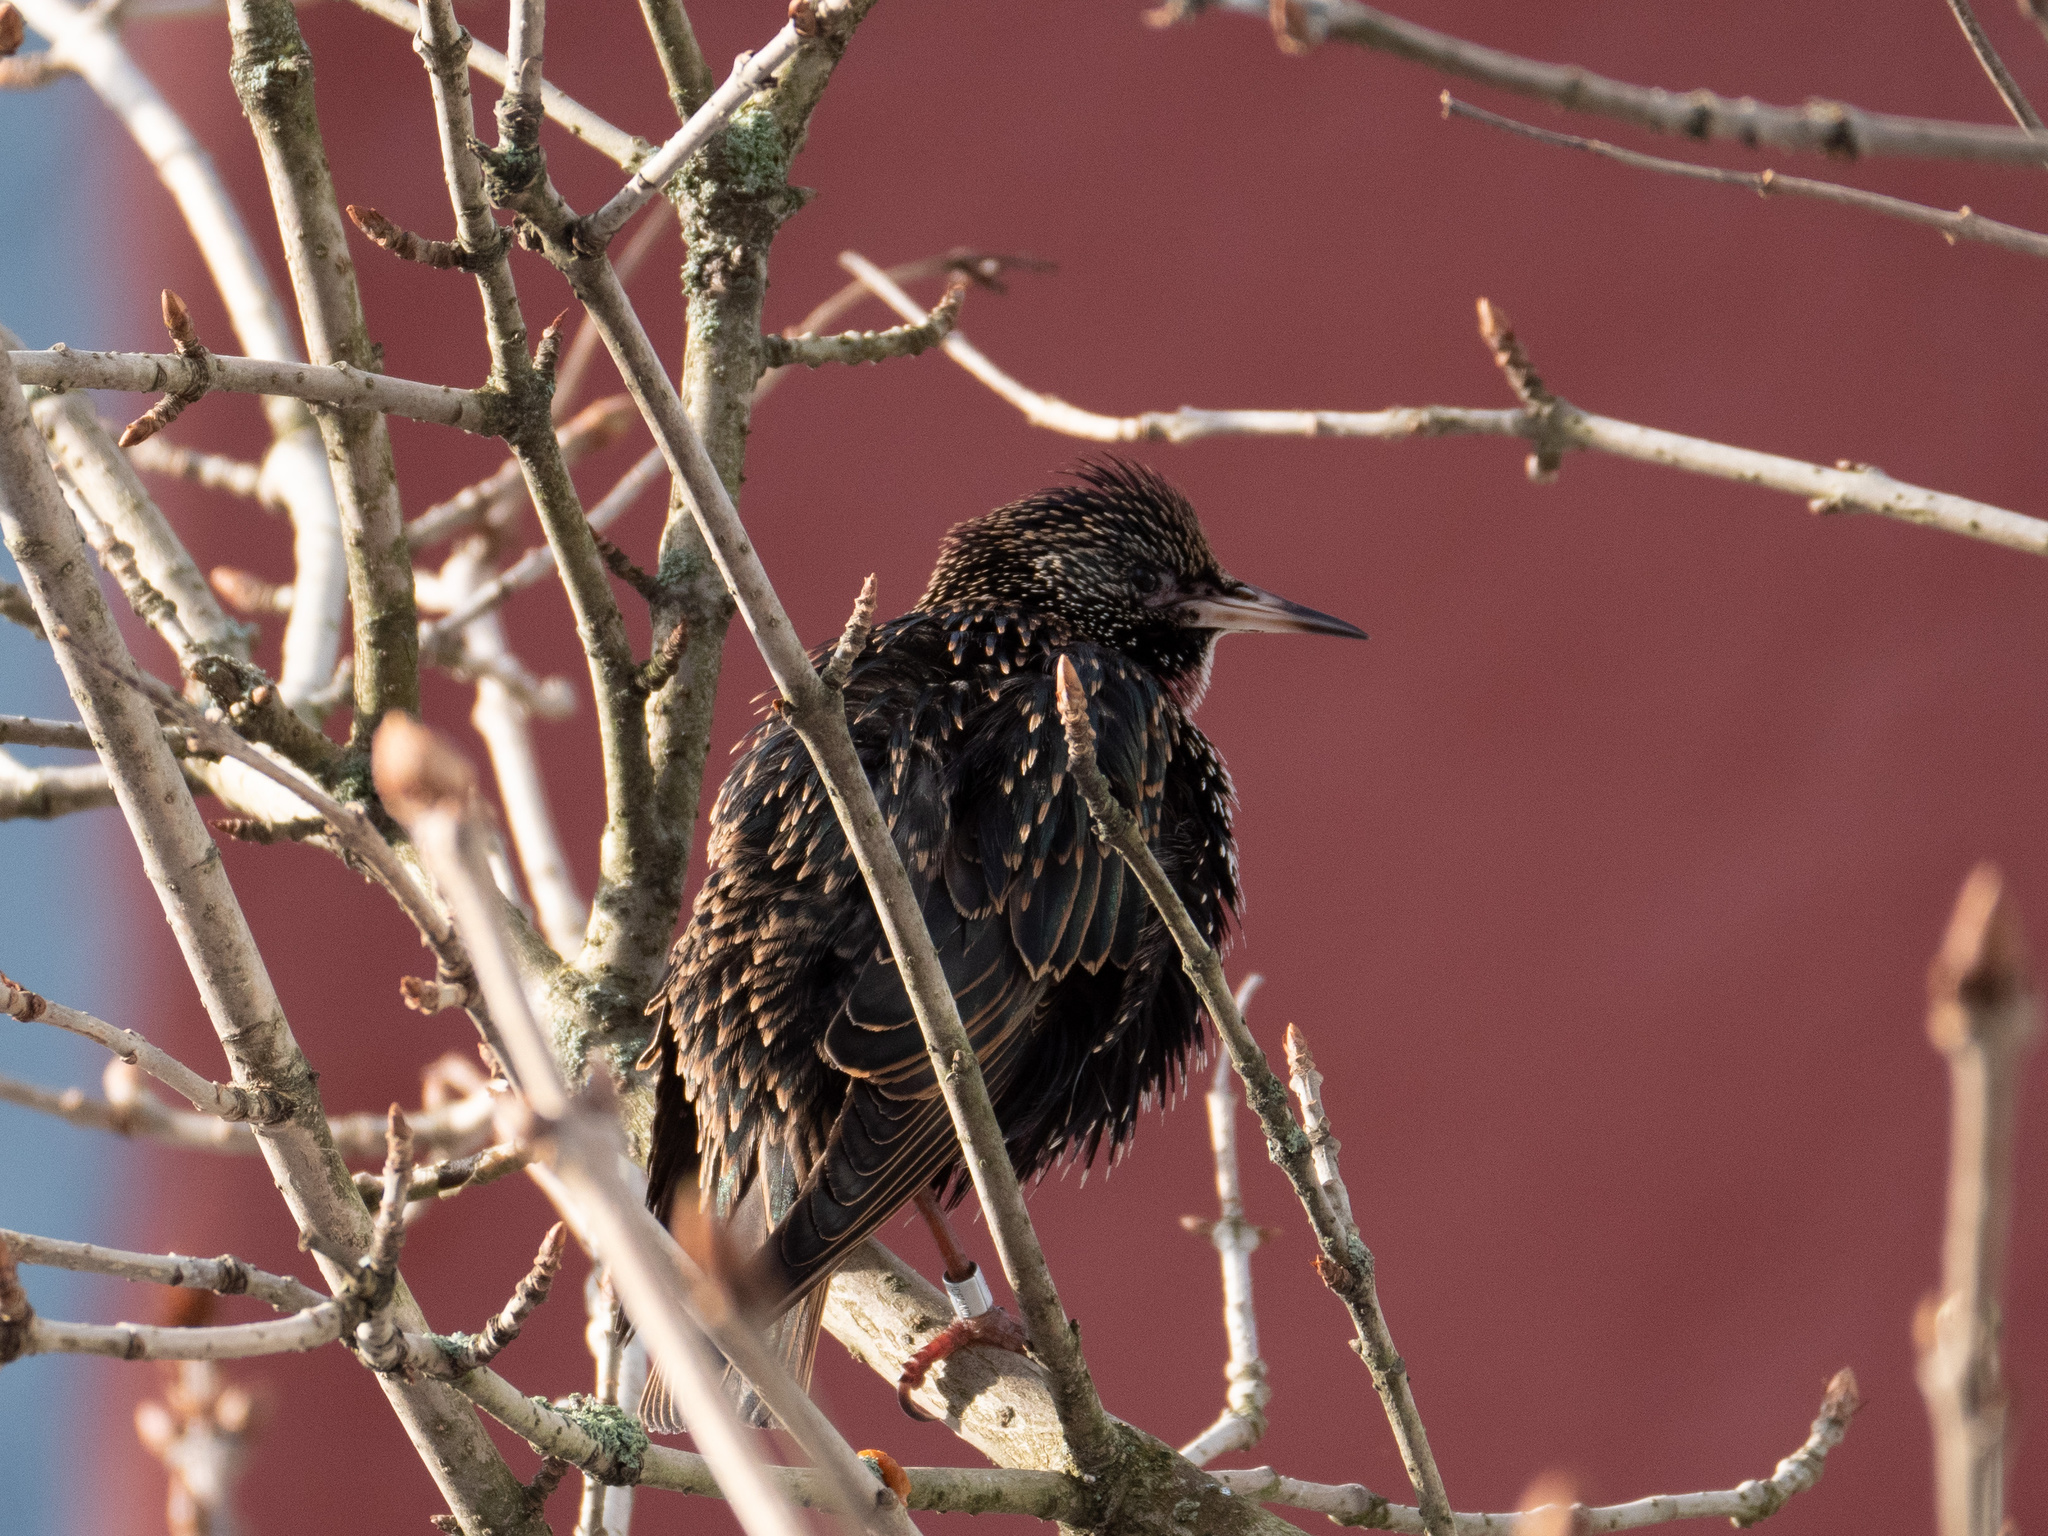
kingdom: Animalia
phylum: Chordata
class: Aves
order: Passeriformes
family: Sturnidae
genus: Sturnus
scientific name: Sturnus vulgaris
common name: Common starling
